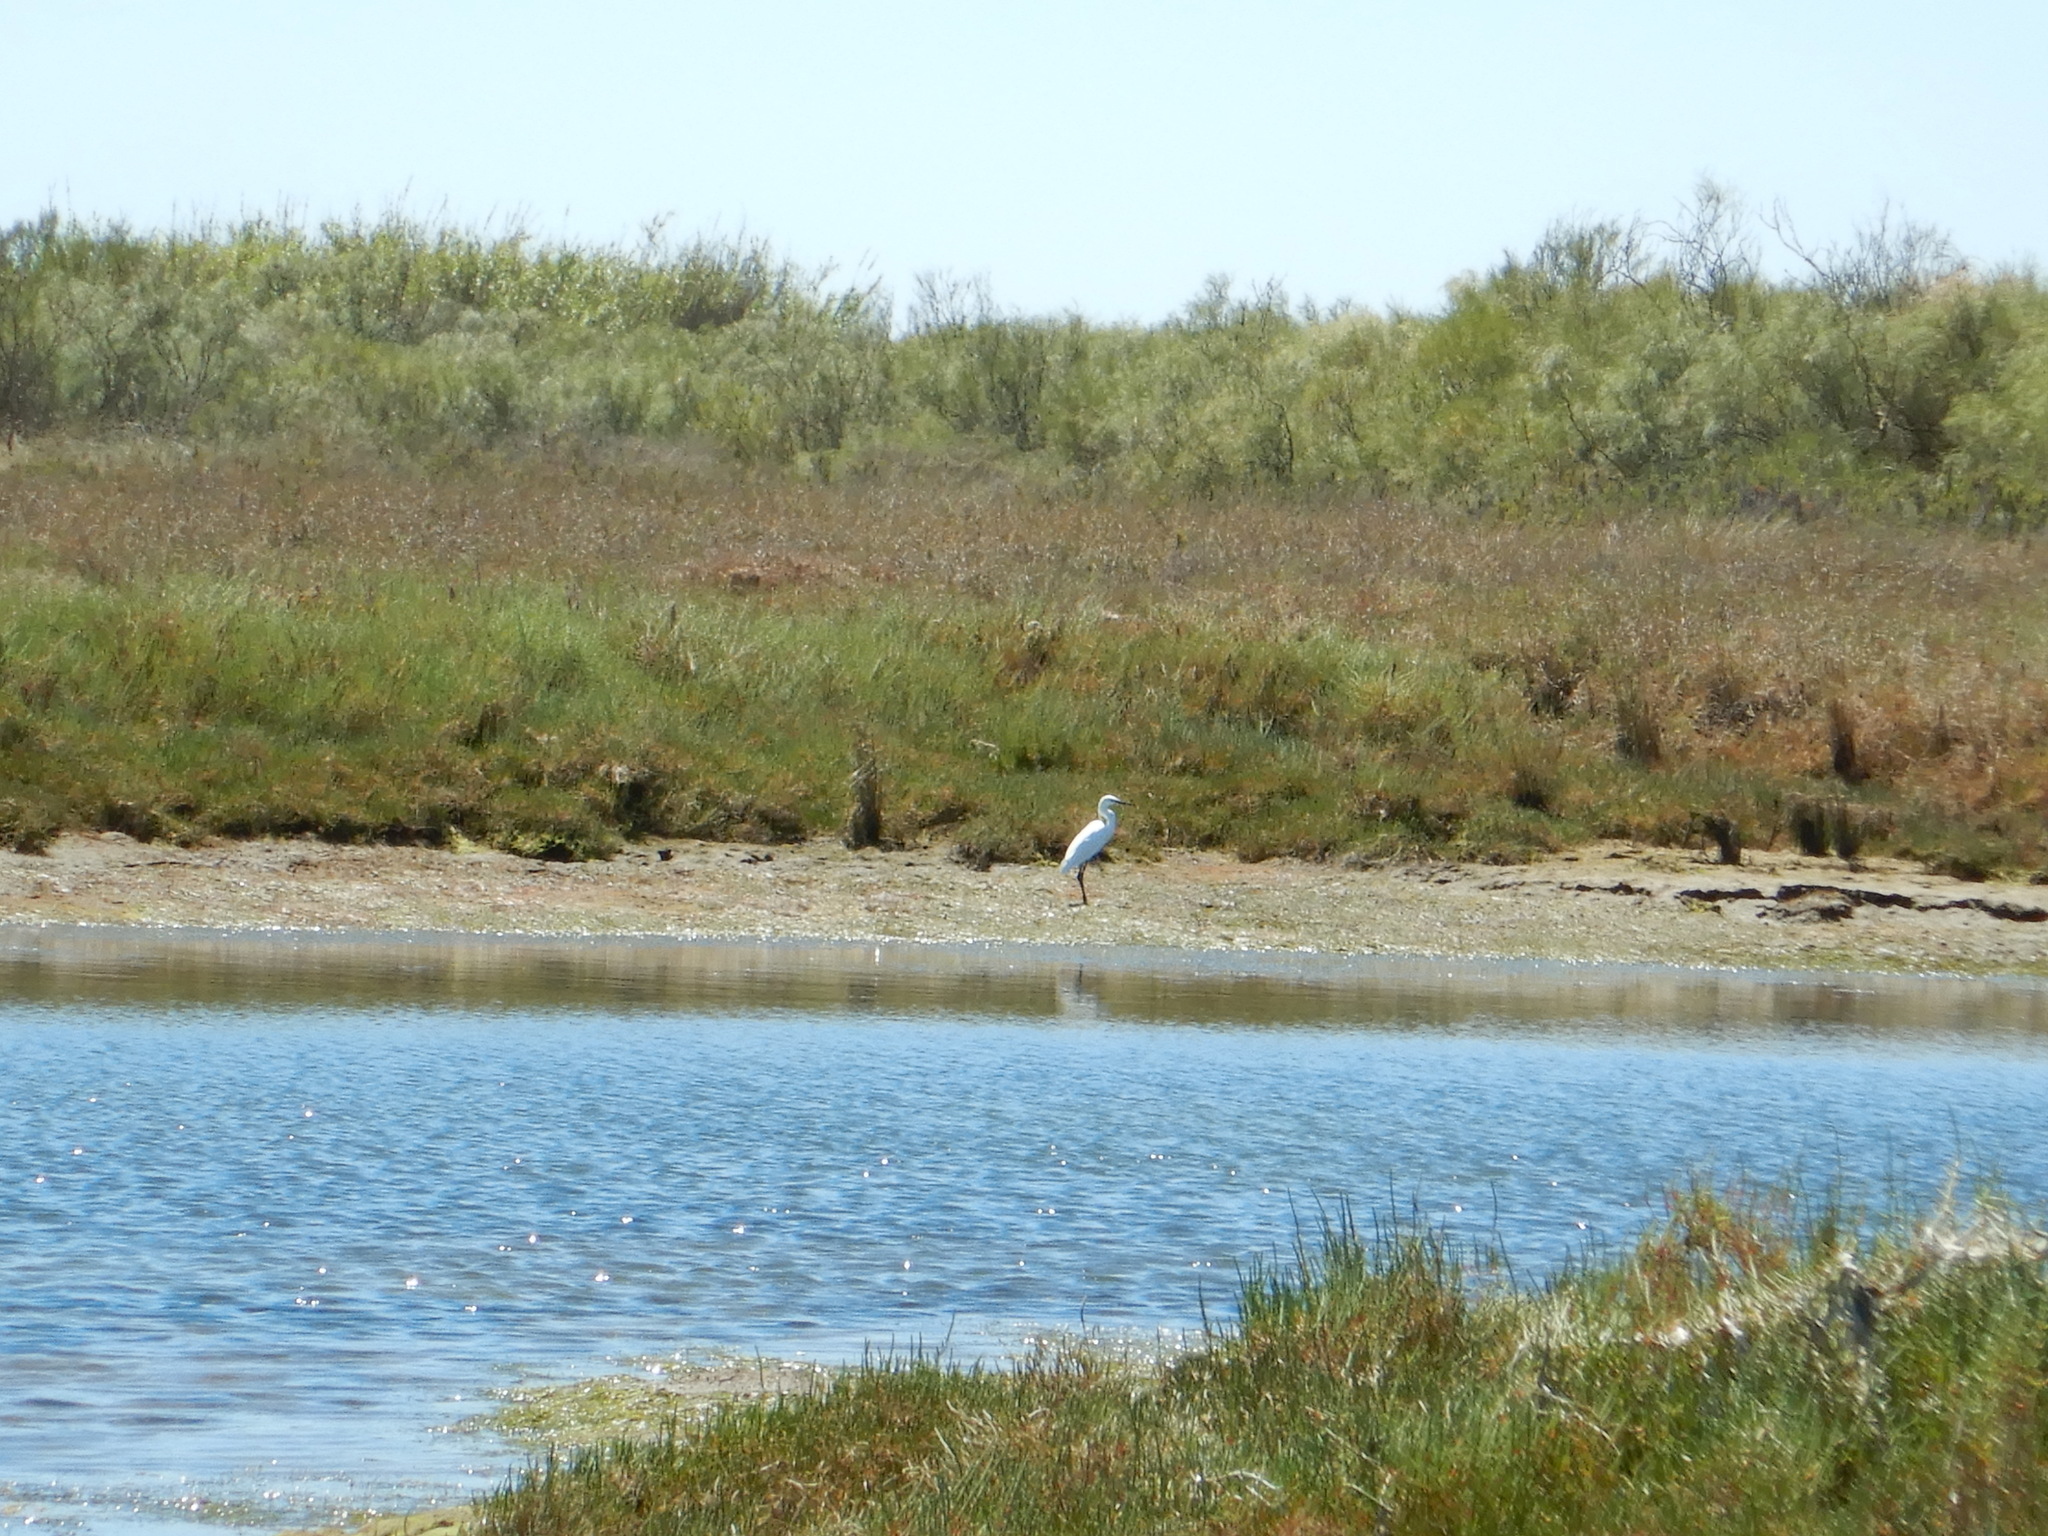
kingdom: Animalia
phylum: Chordata
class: Aves
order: Pelecaniformes
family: Ardeidae
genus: Egretta
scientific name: Egretta garzetta
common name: Little egret
